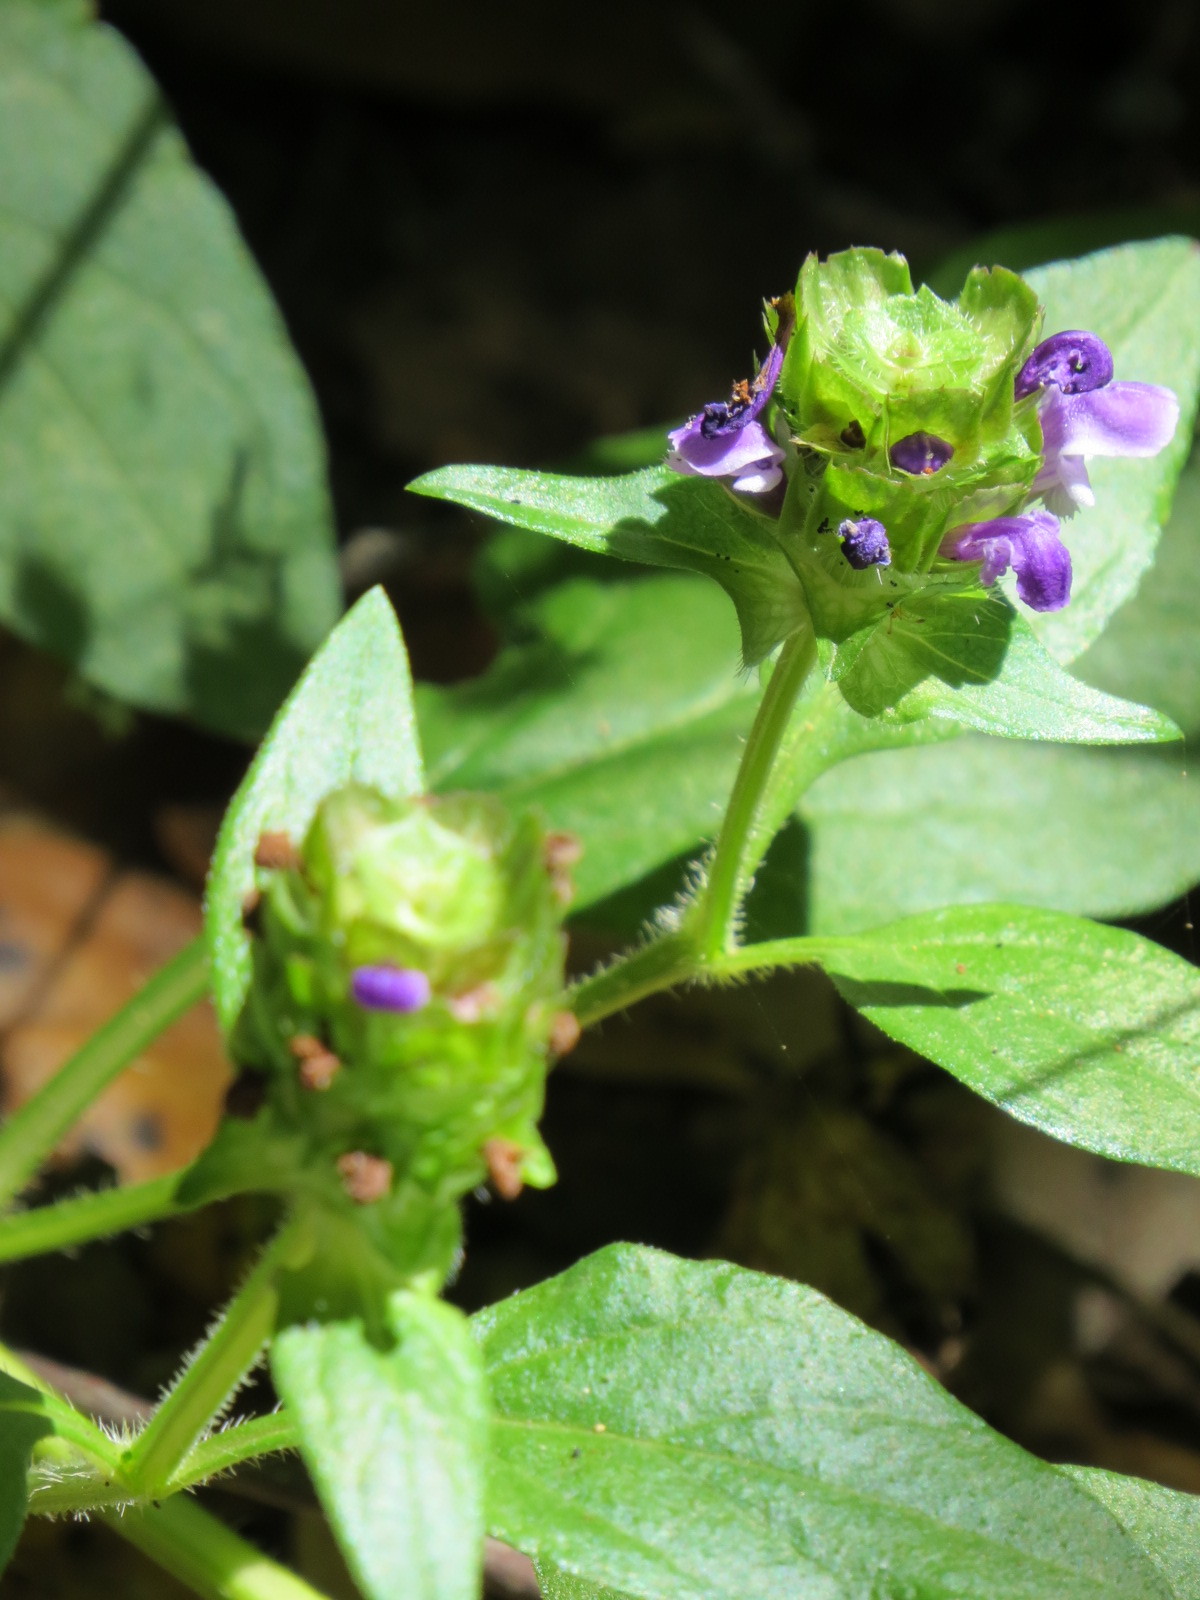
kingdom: Plantae
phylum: Tracheophyta
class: Magnoliopsida
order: Lamiales
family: Lamiaceae
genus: Prunella
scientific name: Prunella vulgaris
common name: Heal-all
